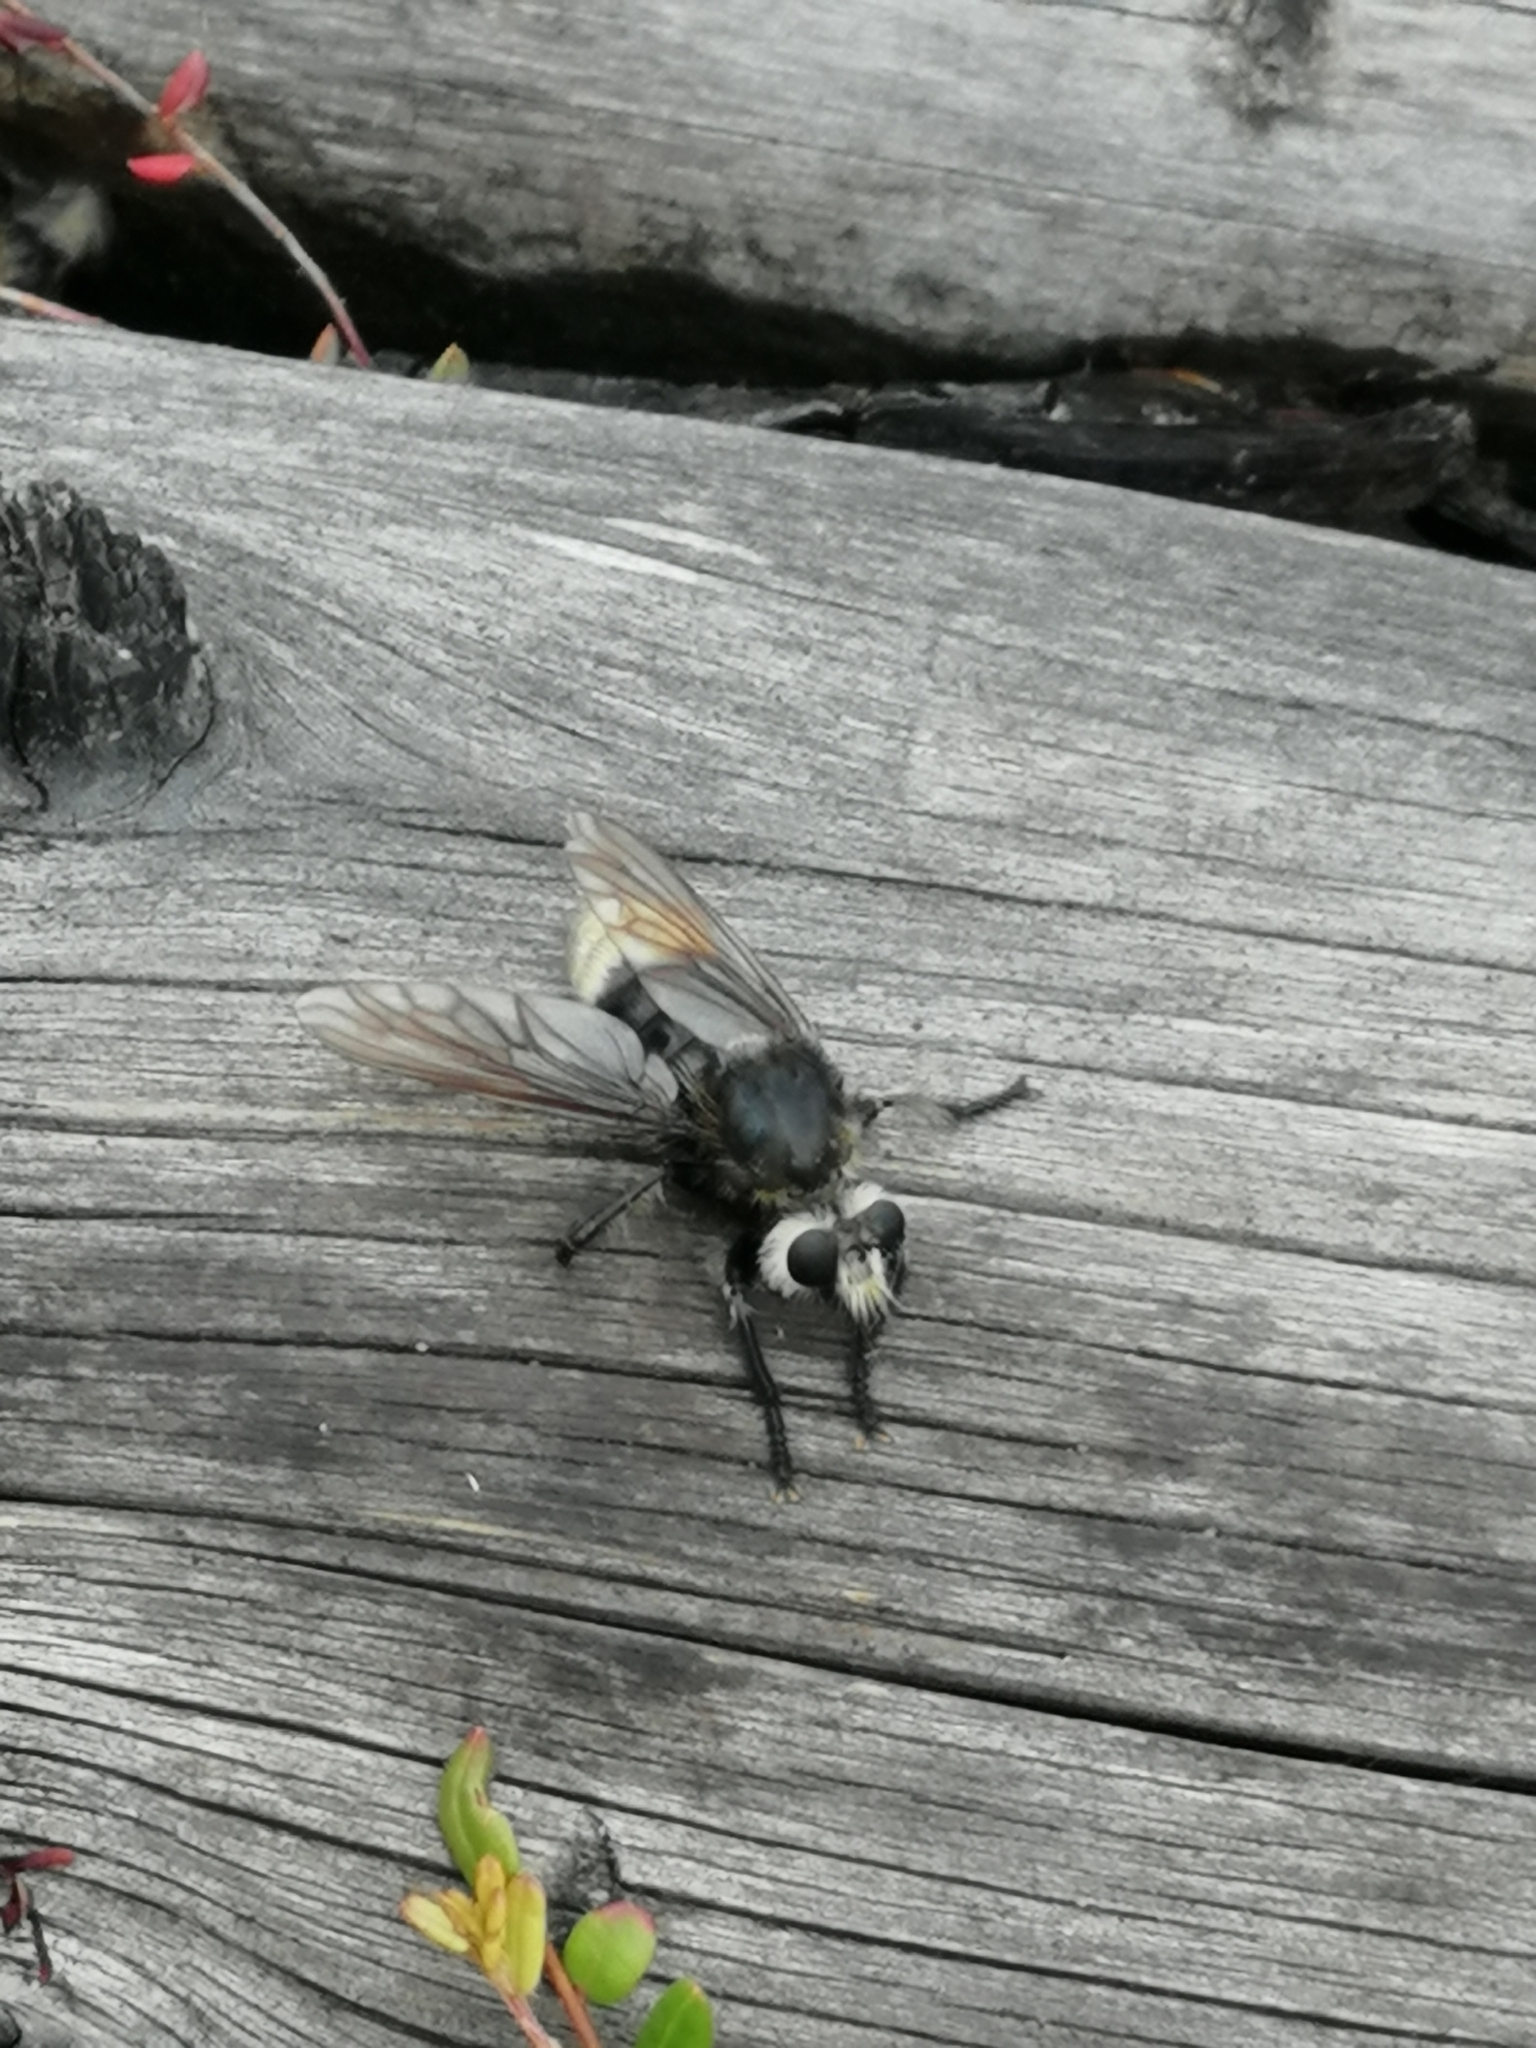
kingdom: Animalia
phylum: Arthropoda
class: Insecta
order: Diptera
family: Asilidae
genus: Laphria
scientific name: Laphria gibbosa
